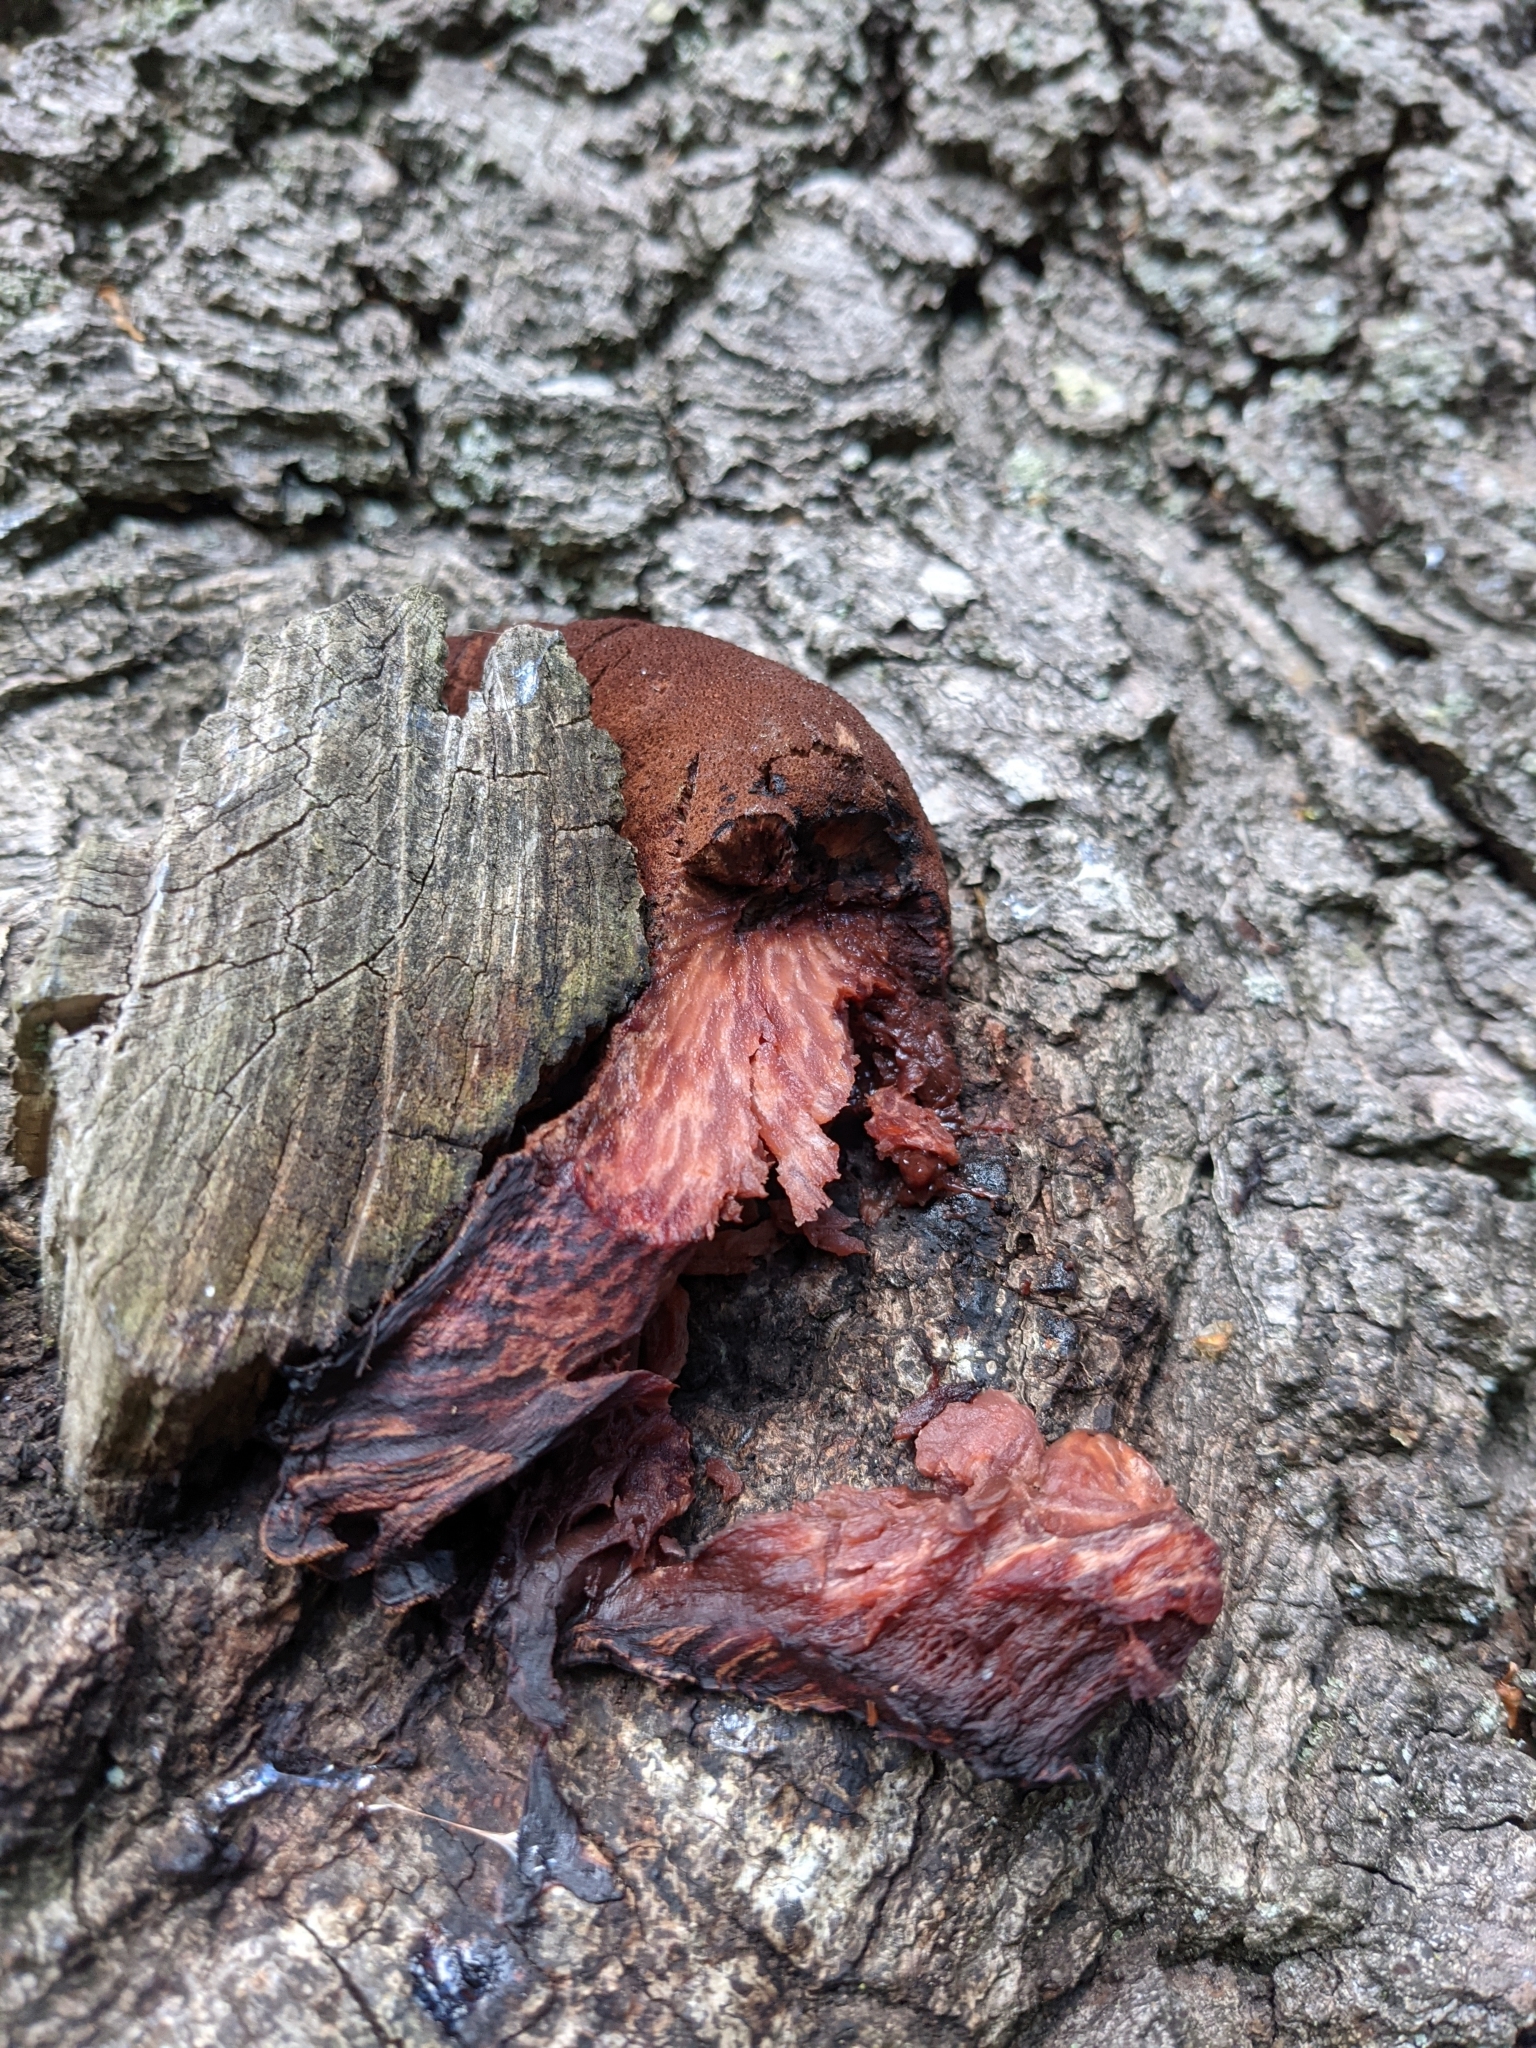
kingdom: Fungi
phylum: Basidiomycota
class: Agaricomycetes
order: Agaricales
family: Fistulinaceae
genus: Fistulina
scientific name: Fistulina hepatica
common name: Beef-steak fungus
